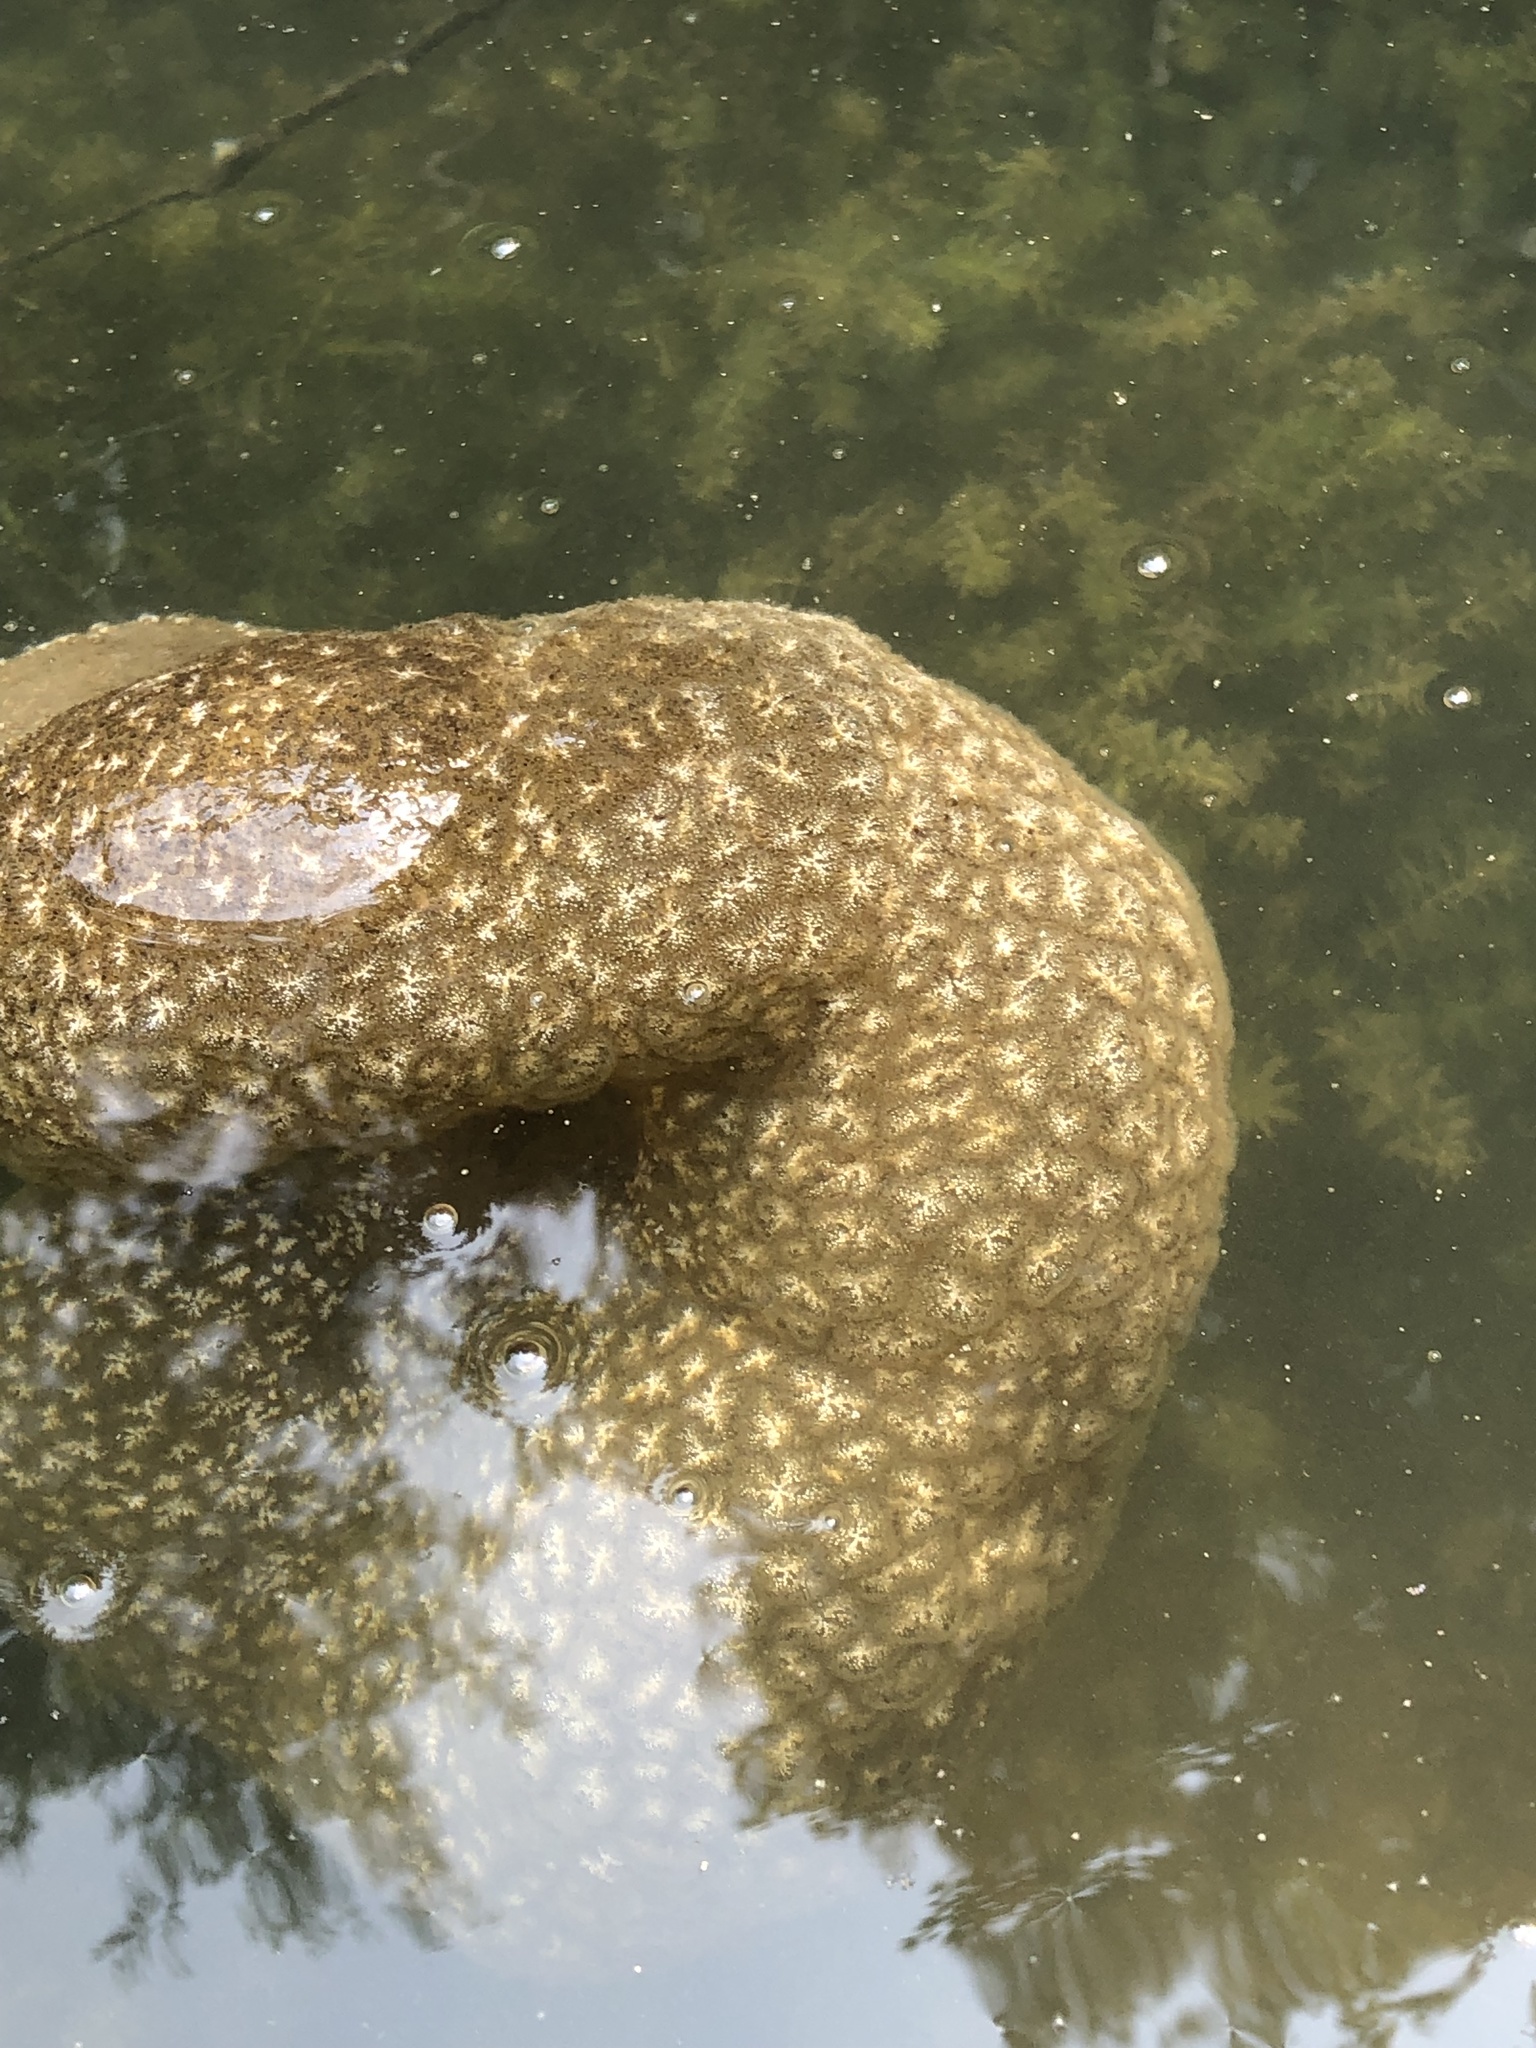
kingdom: Animalia
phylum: Bryozoa
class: Phylactolaemata
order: Plumatellida
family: Pectinatellidae
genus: Pectinatella
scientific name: Pectinatella magnifica
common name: Magnificent bryozoan
